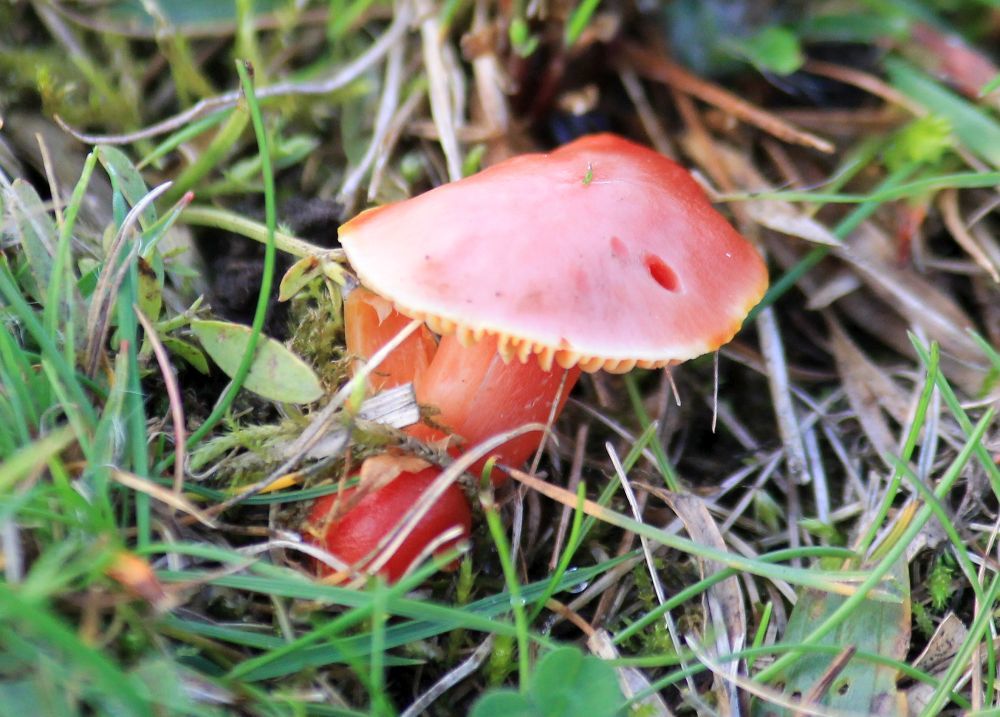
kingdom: Fungi
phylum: Basidiomycota
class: Agaricomycetes
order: Agaricales
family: Hygrophoraceae
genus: Hygrocybe
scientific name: Hygrocybe coccinea
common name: Scarlet hood
